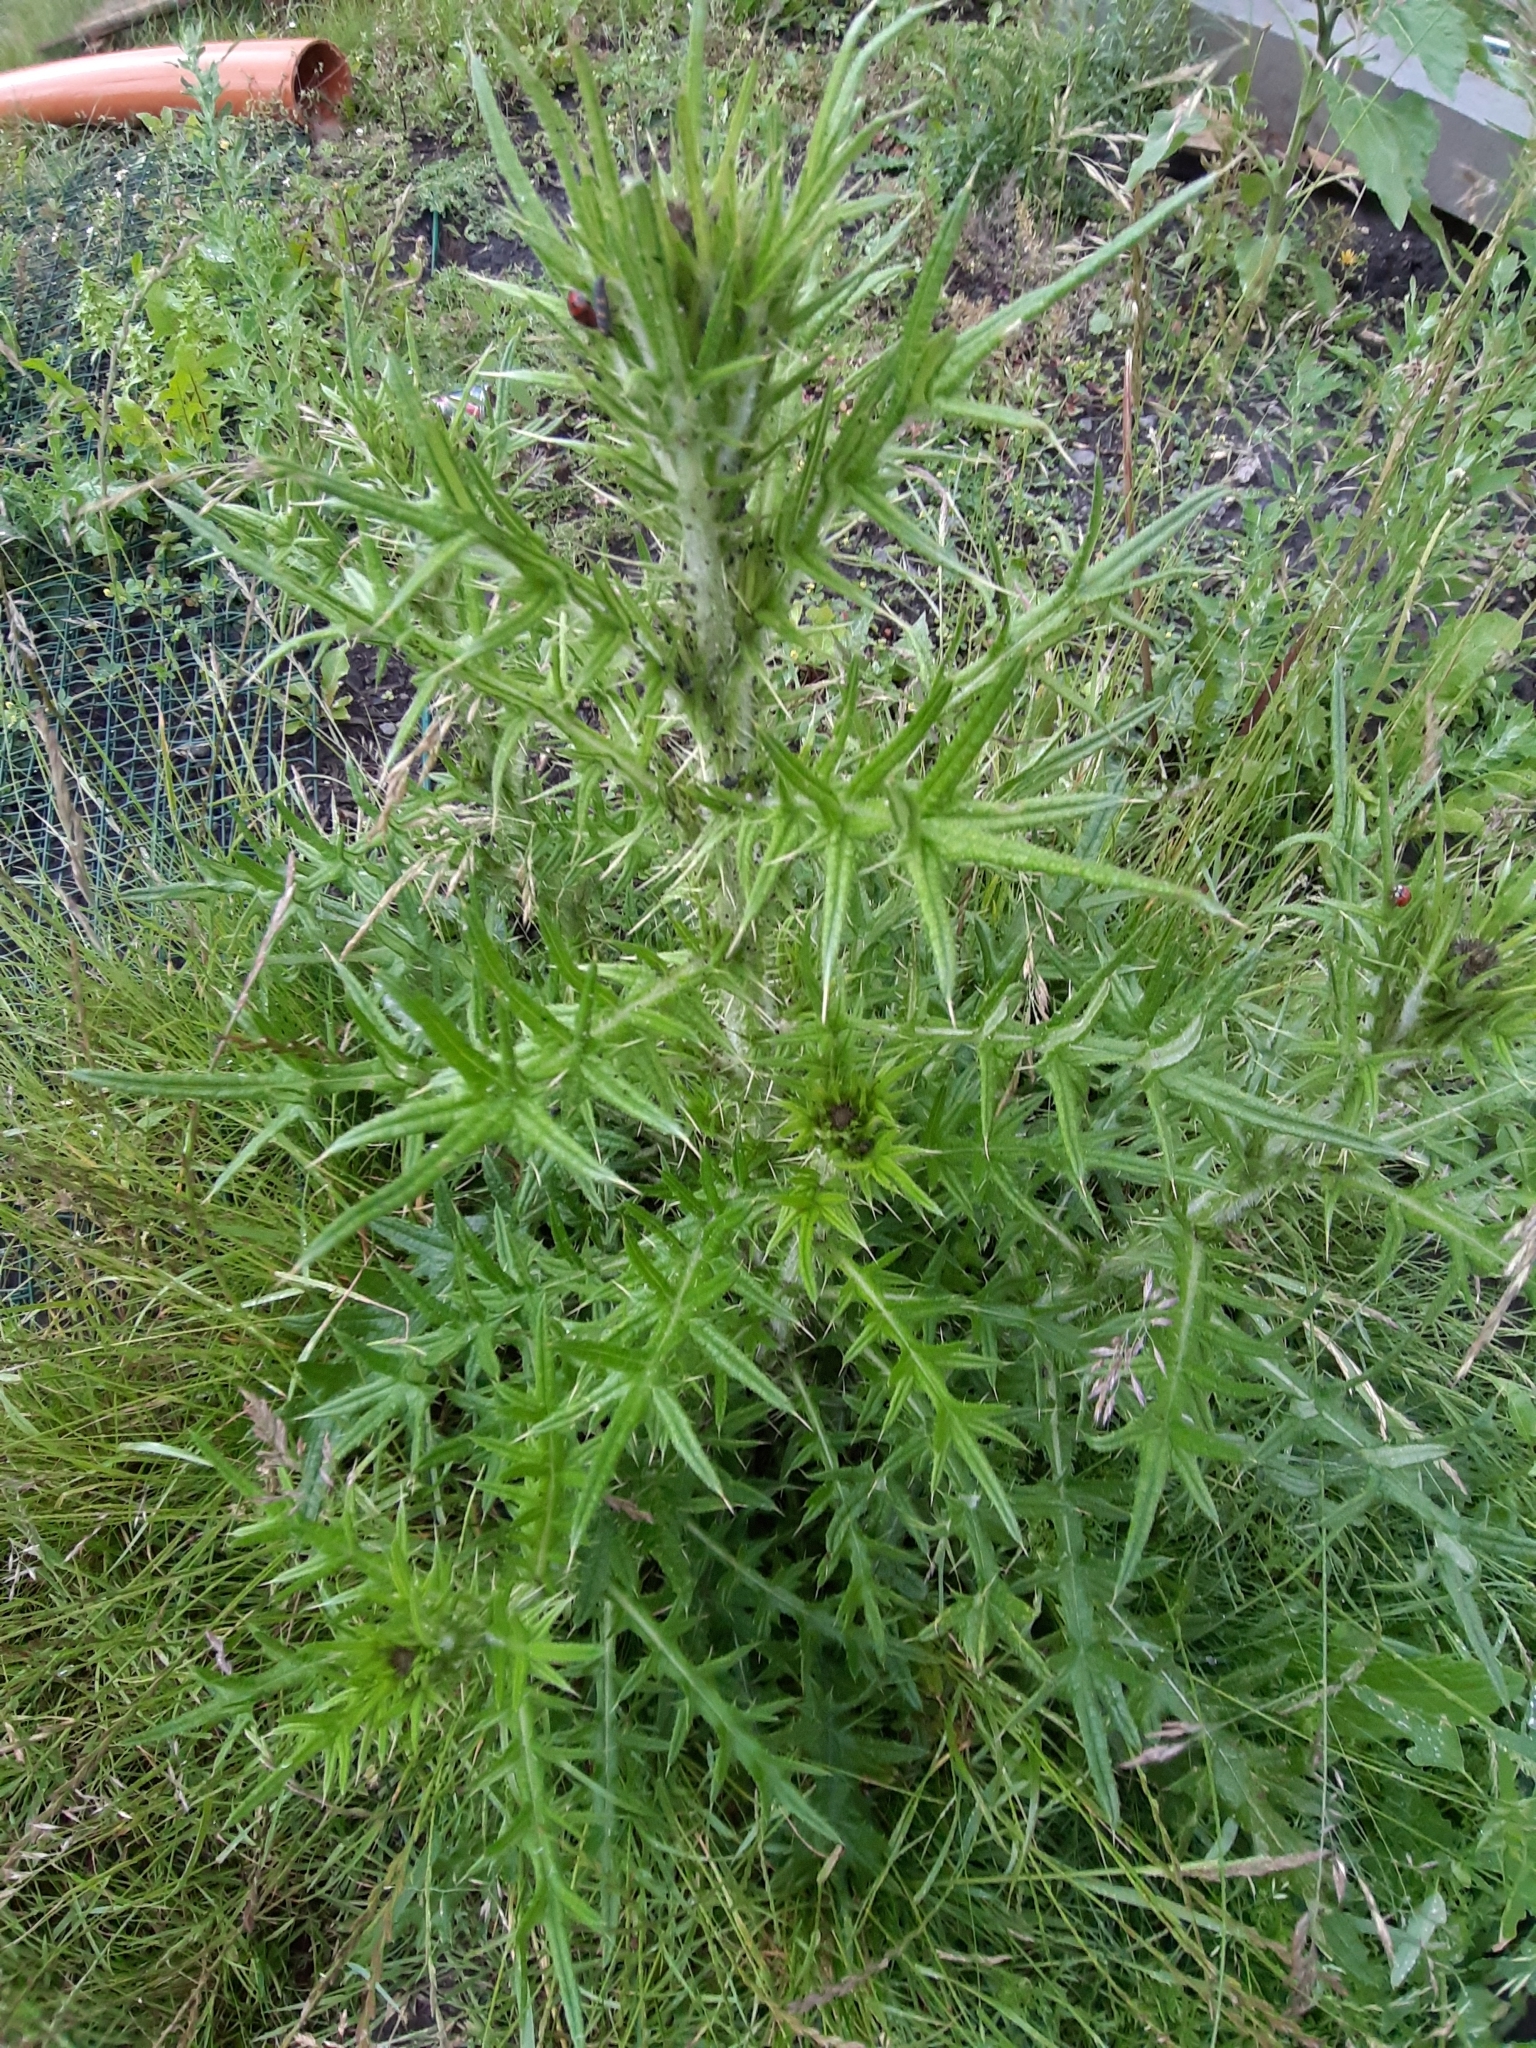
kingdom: Plantae
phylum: Tracheophyta
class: Magnoliopsida
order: Asterales
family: Asteraceae
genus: Cirsium
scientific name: Cirsium vulgare
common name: Bull thistle
